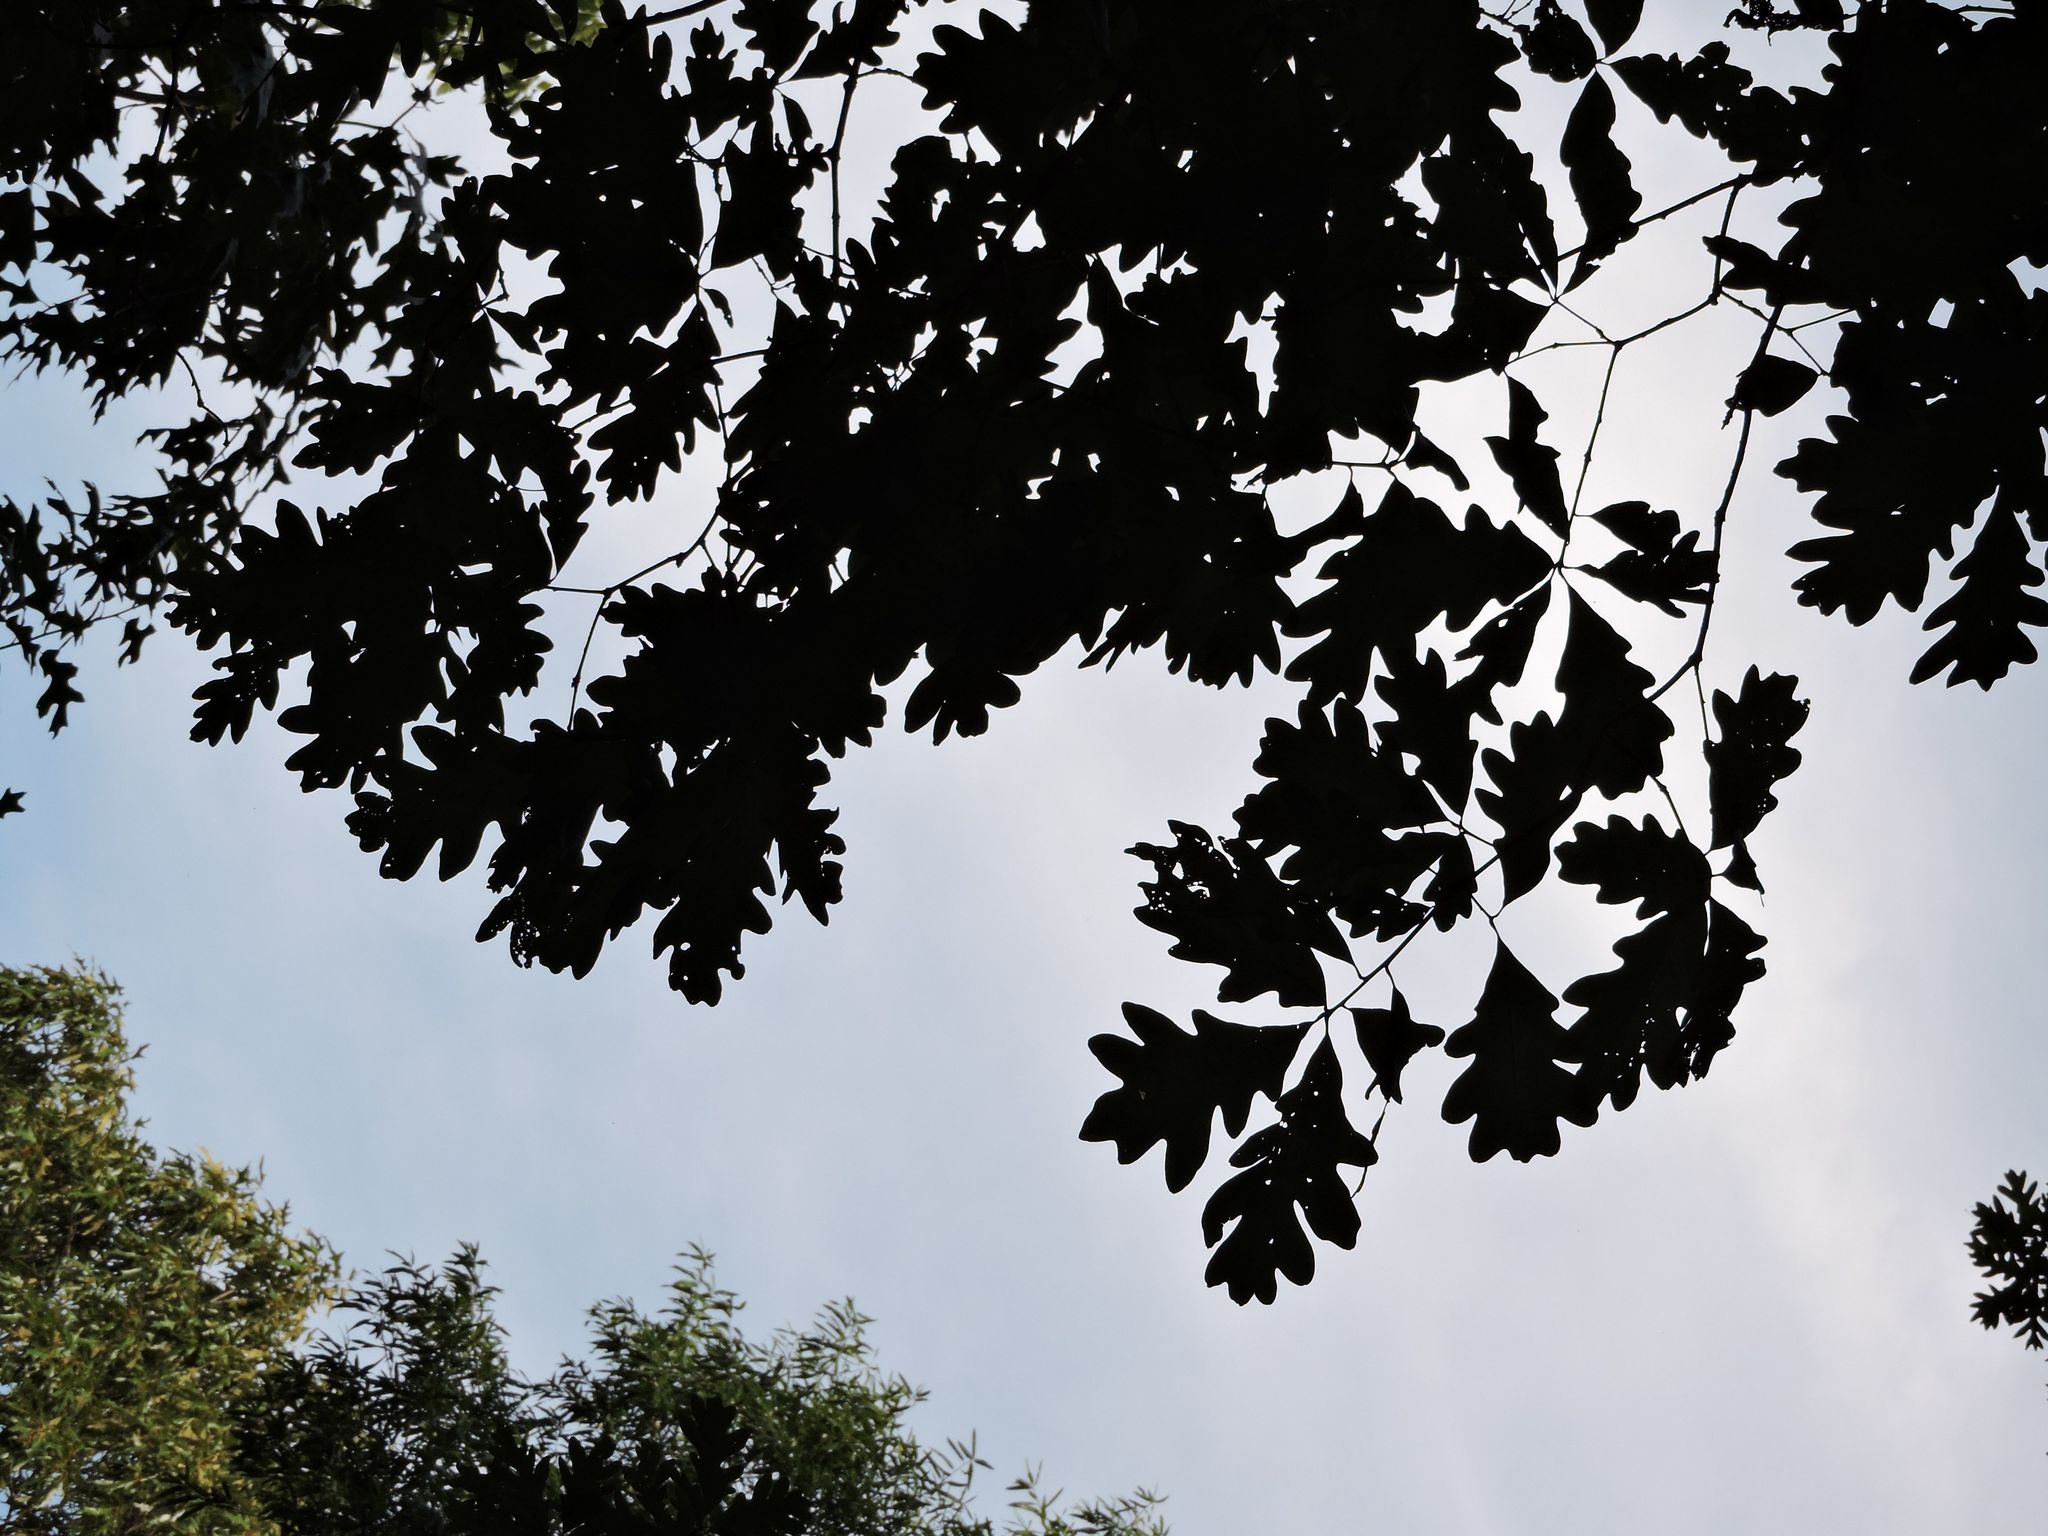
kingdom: Plantae
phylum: Tracheophyta
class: Magnoliopsida
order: Fagales
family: Fagaceae
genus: Quercus
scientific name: Quercus alba
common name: White oak
